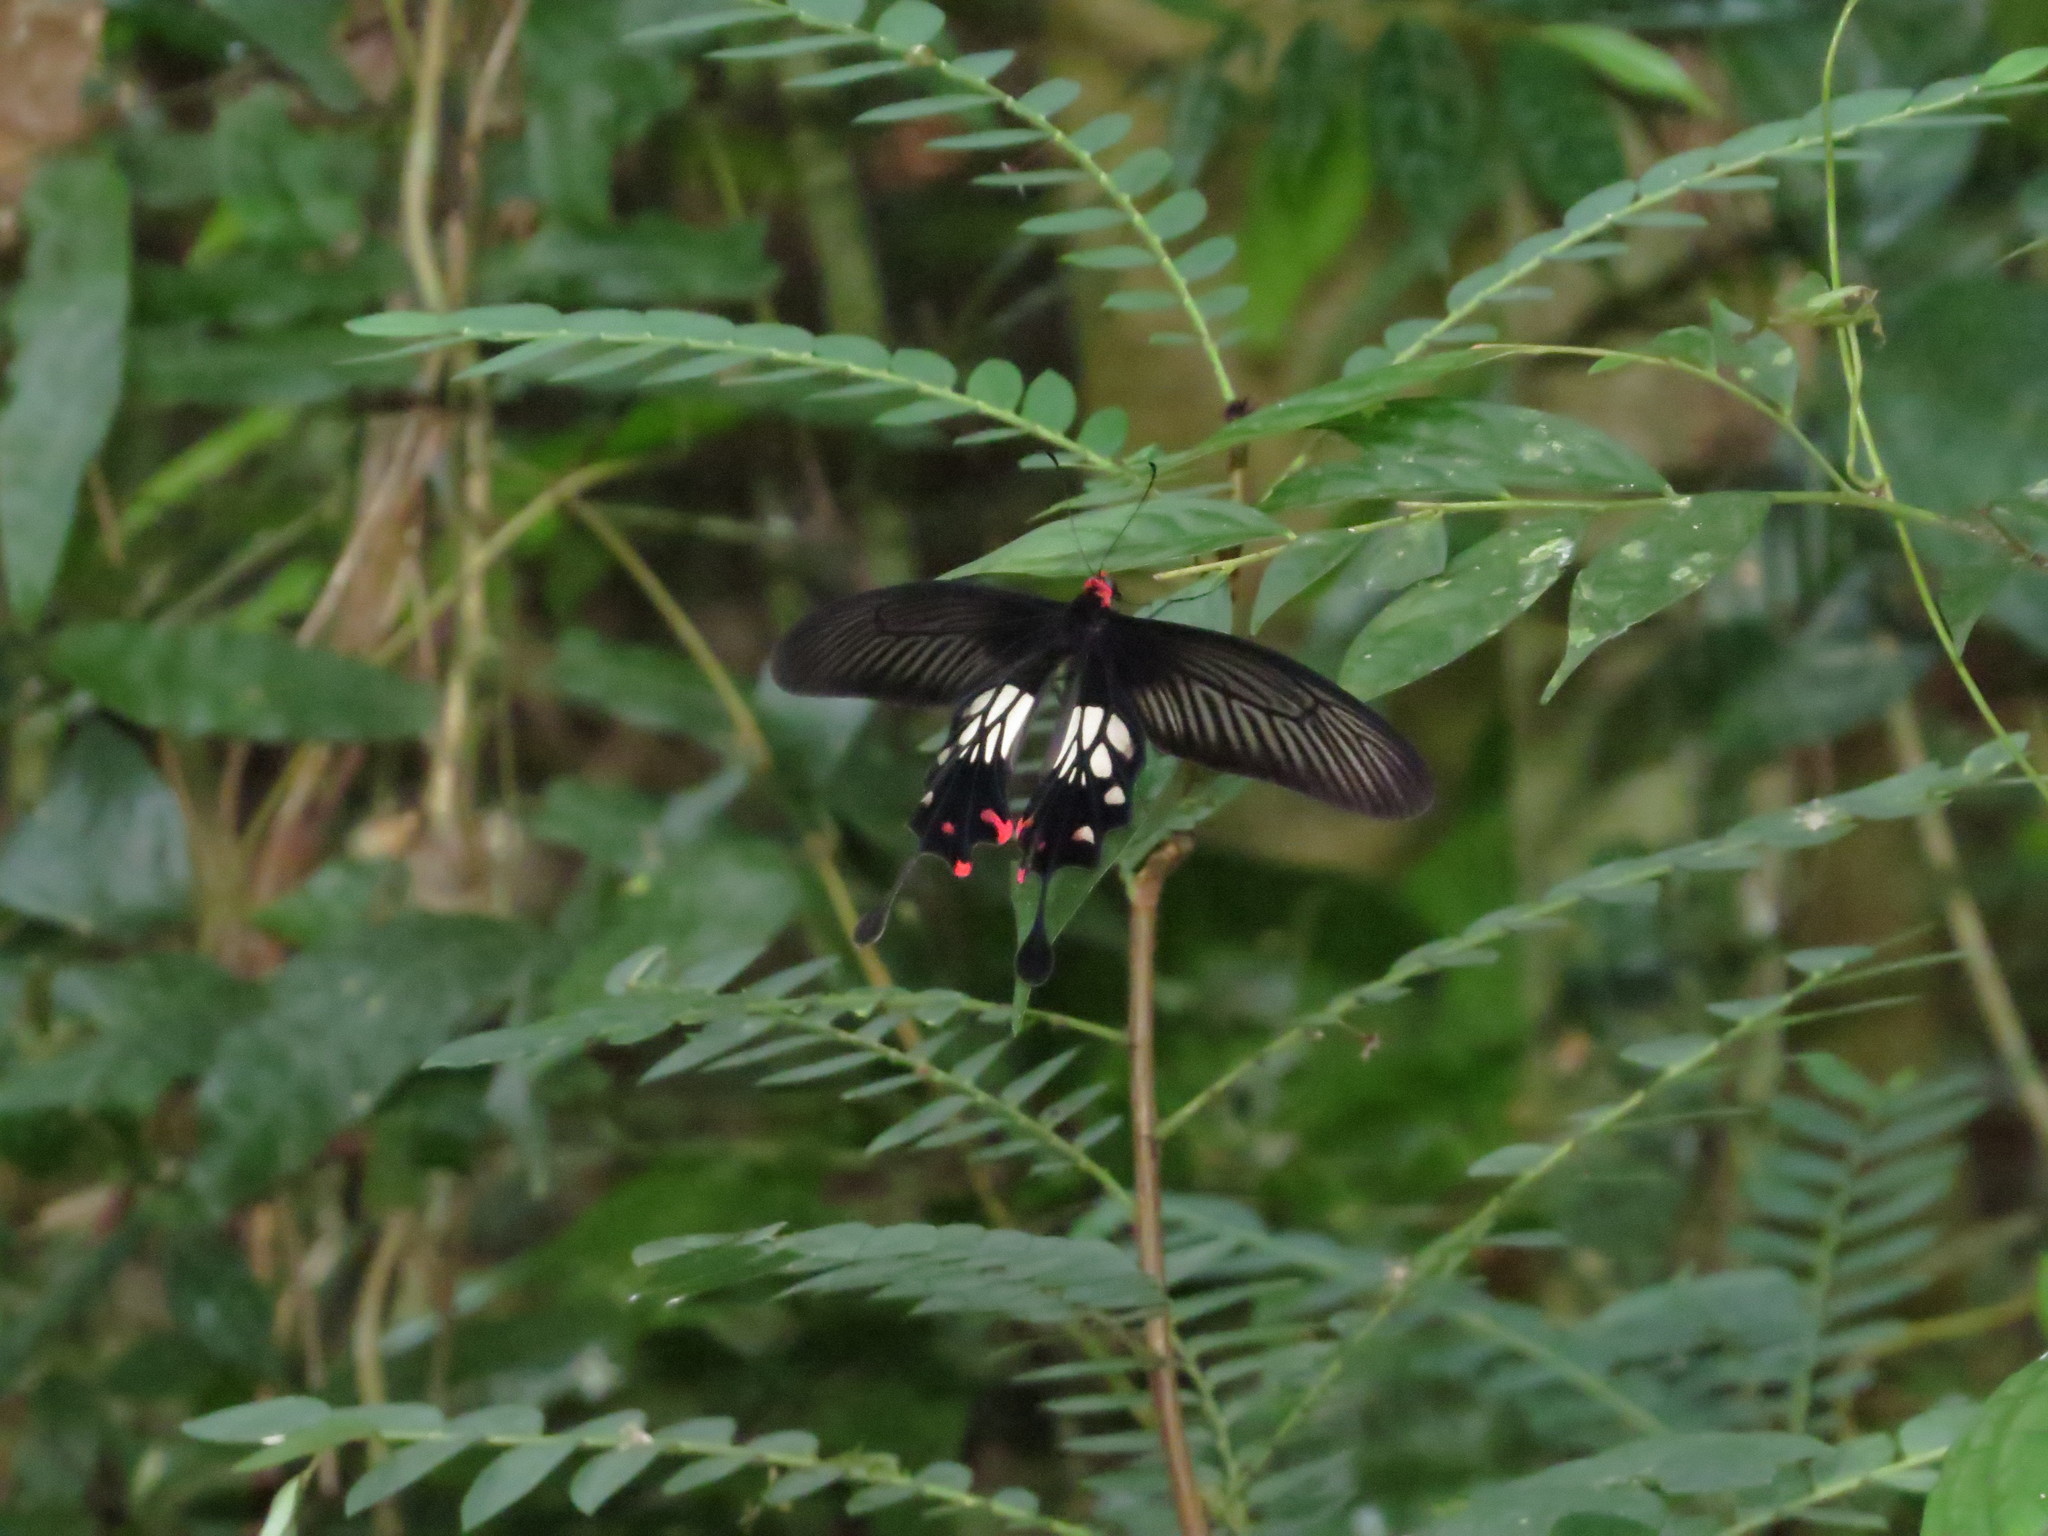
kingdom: Animalia
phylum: Arthropoda
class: Insecta
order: Lepidoptera
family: Papilionidae
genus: Losaria
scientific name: Losaria
